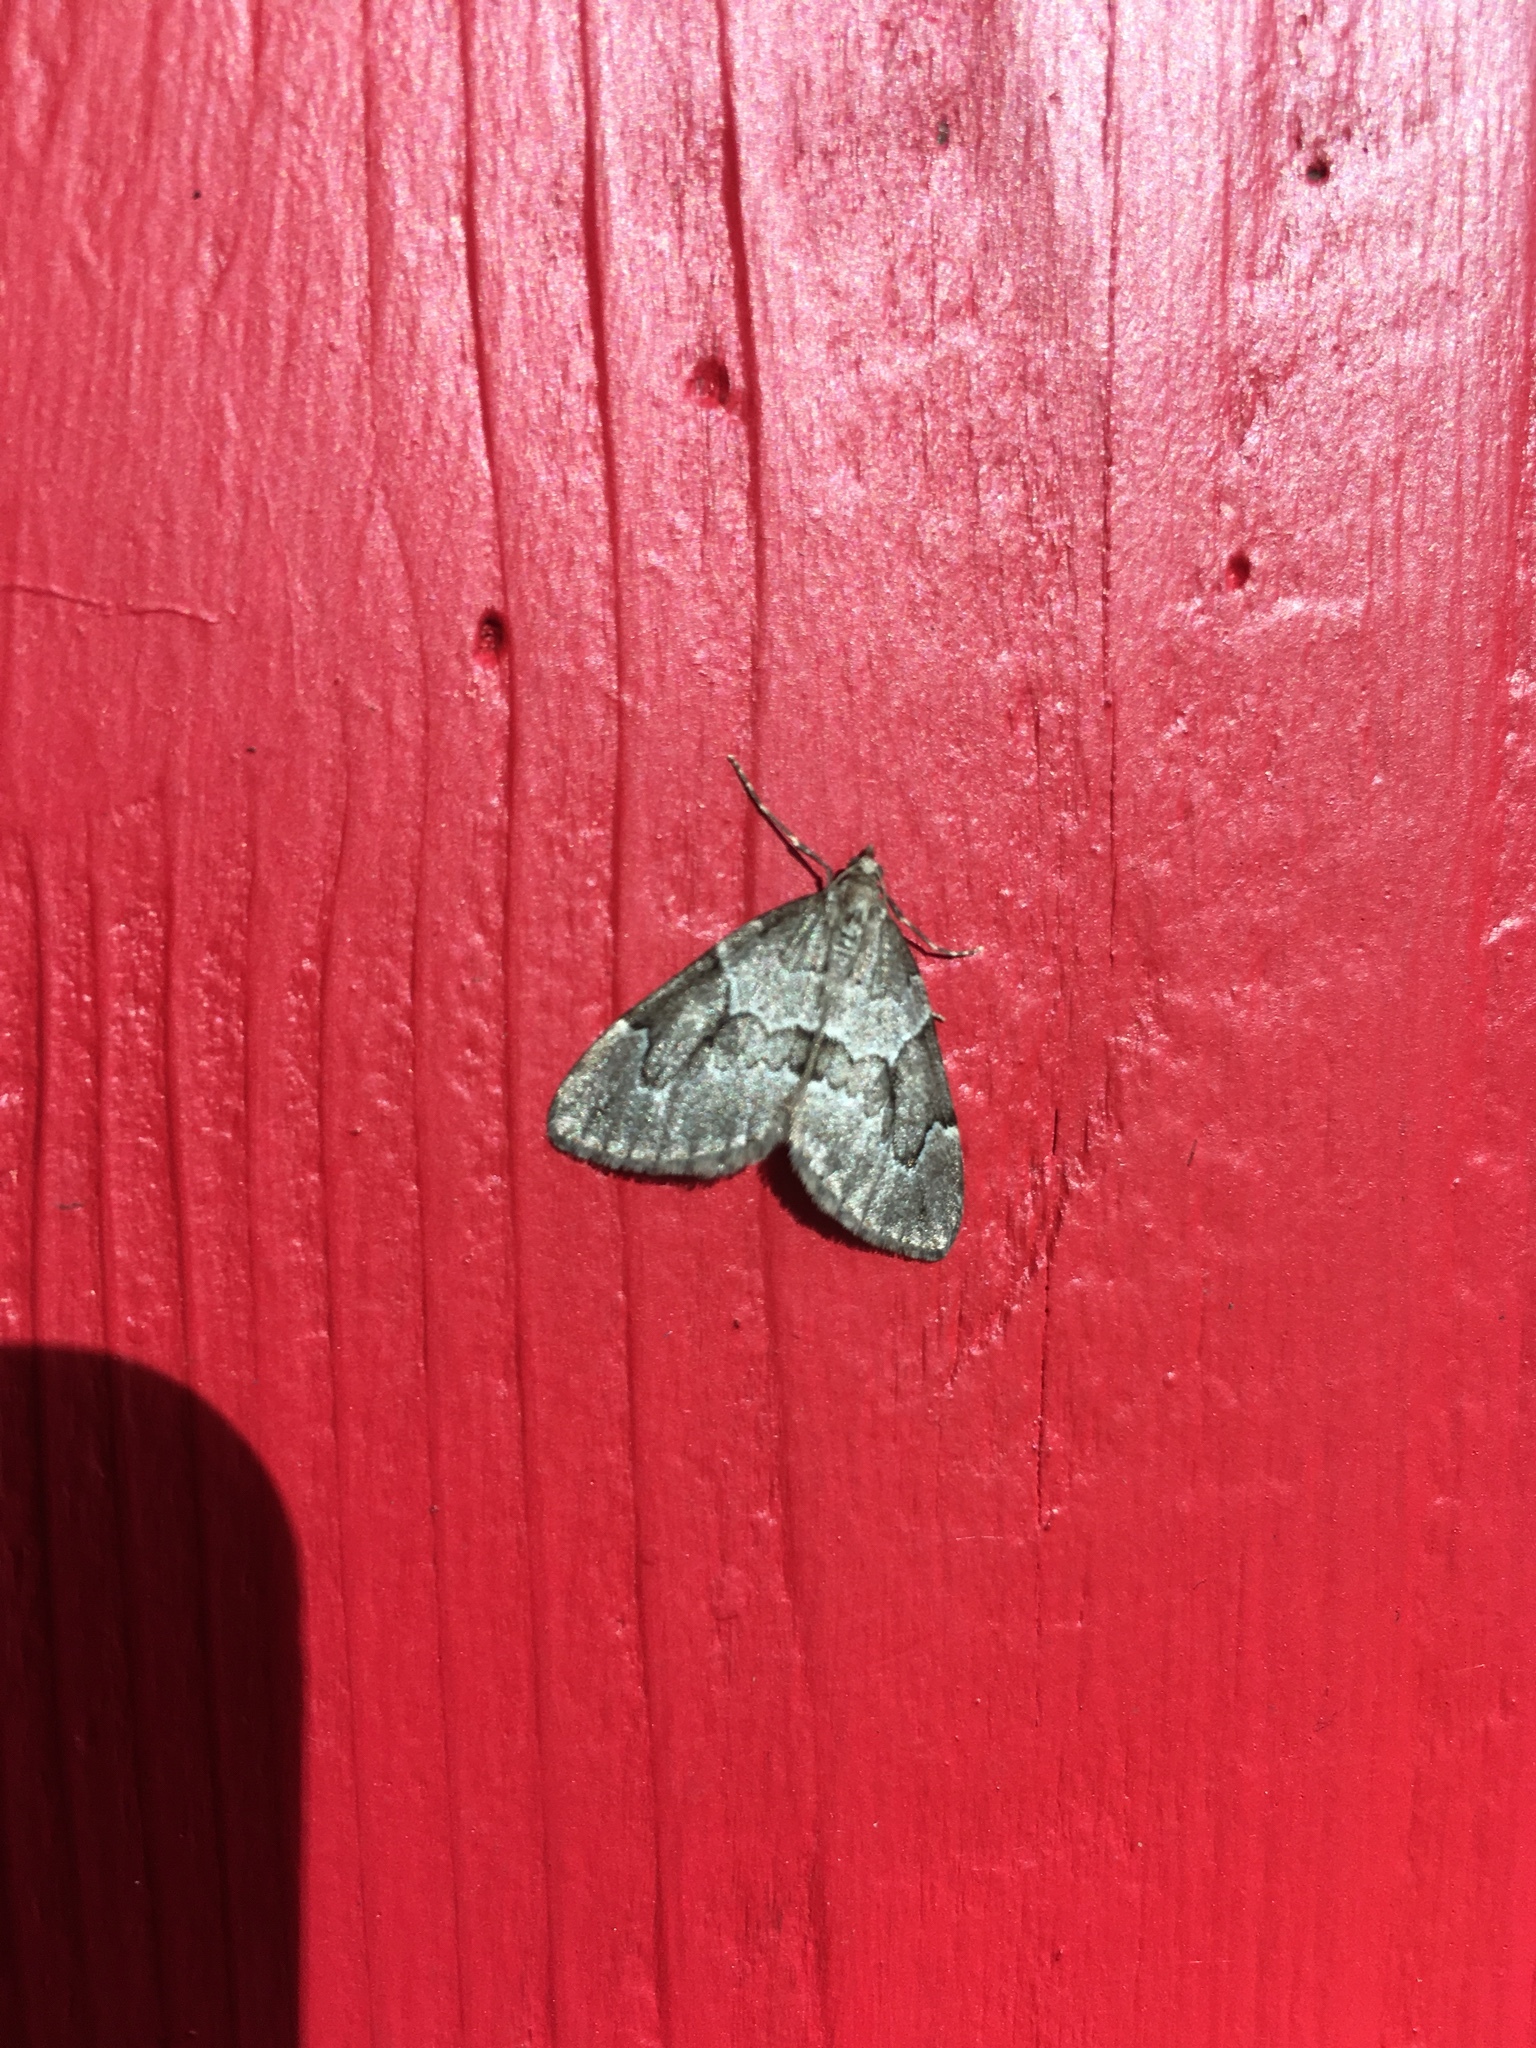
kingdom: Animalia
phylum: Arthropoda
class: Insecta
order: Lepidoptera
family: Geometridae
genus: Thera
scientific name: Thera juniperata
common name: Juniper carpet
